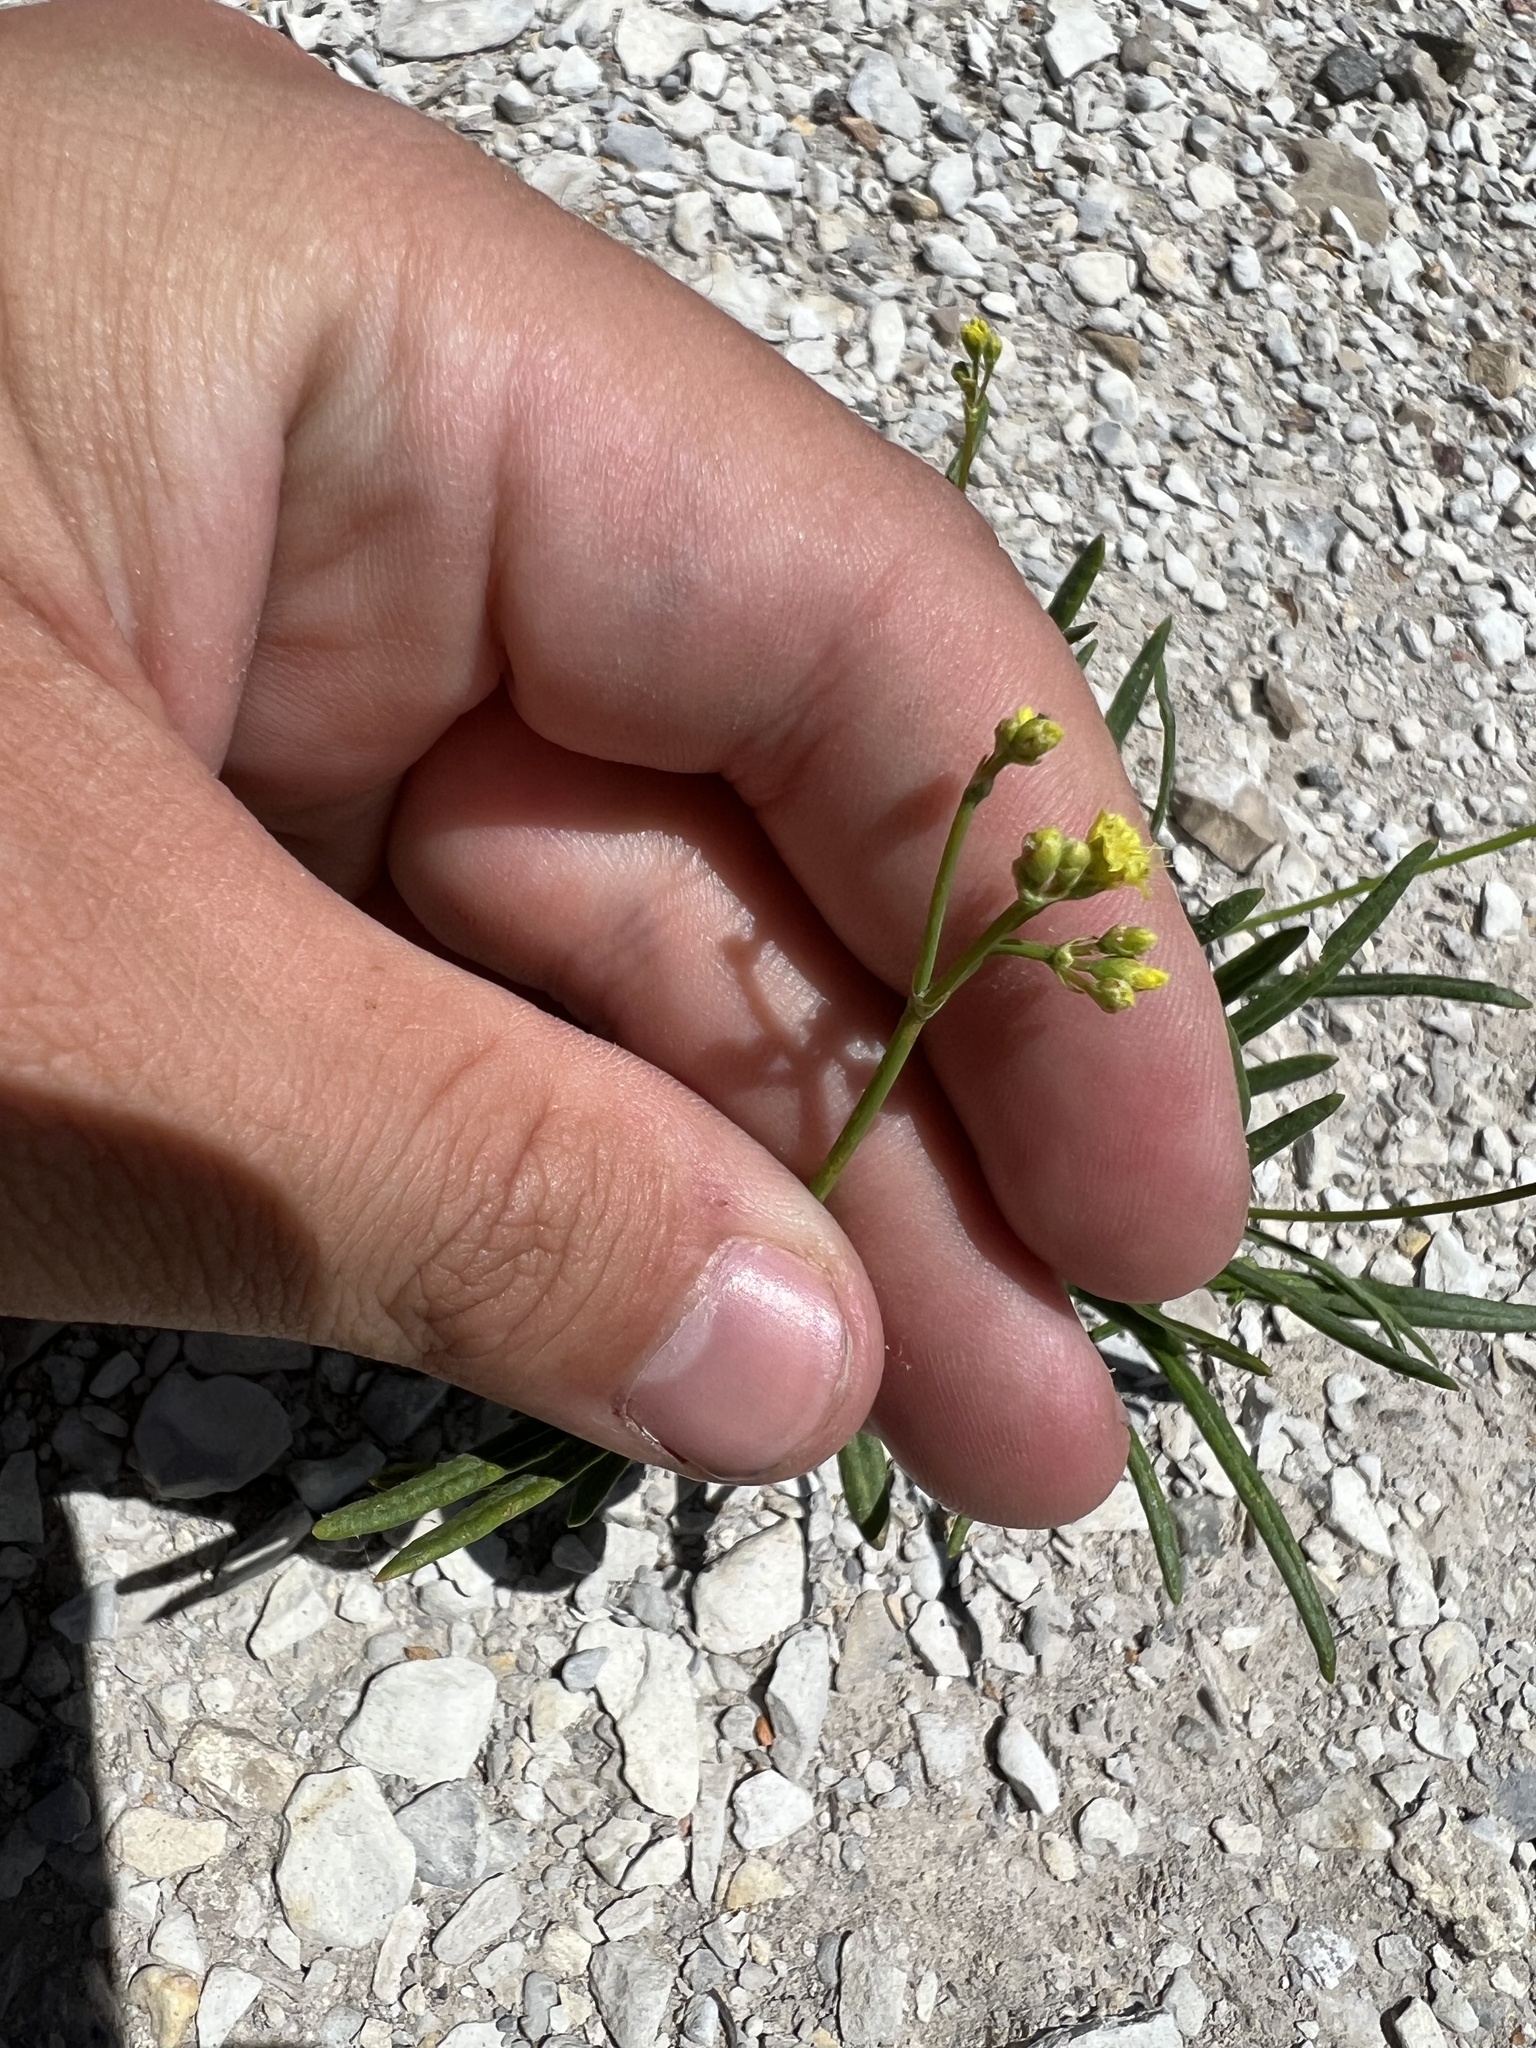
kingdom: Plantae
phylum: Tracheophyta
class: Magnoliopsida
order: Caryophyllales
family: Polygonaceae
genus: Eriogonum
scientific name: Eriogonum brevicaule
